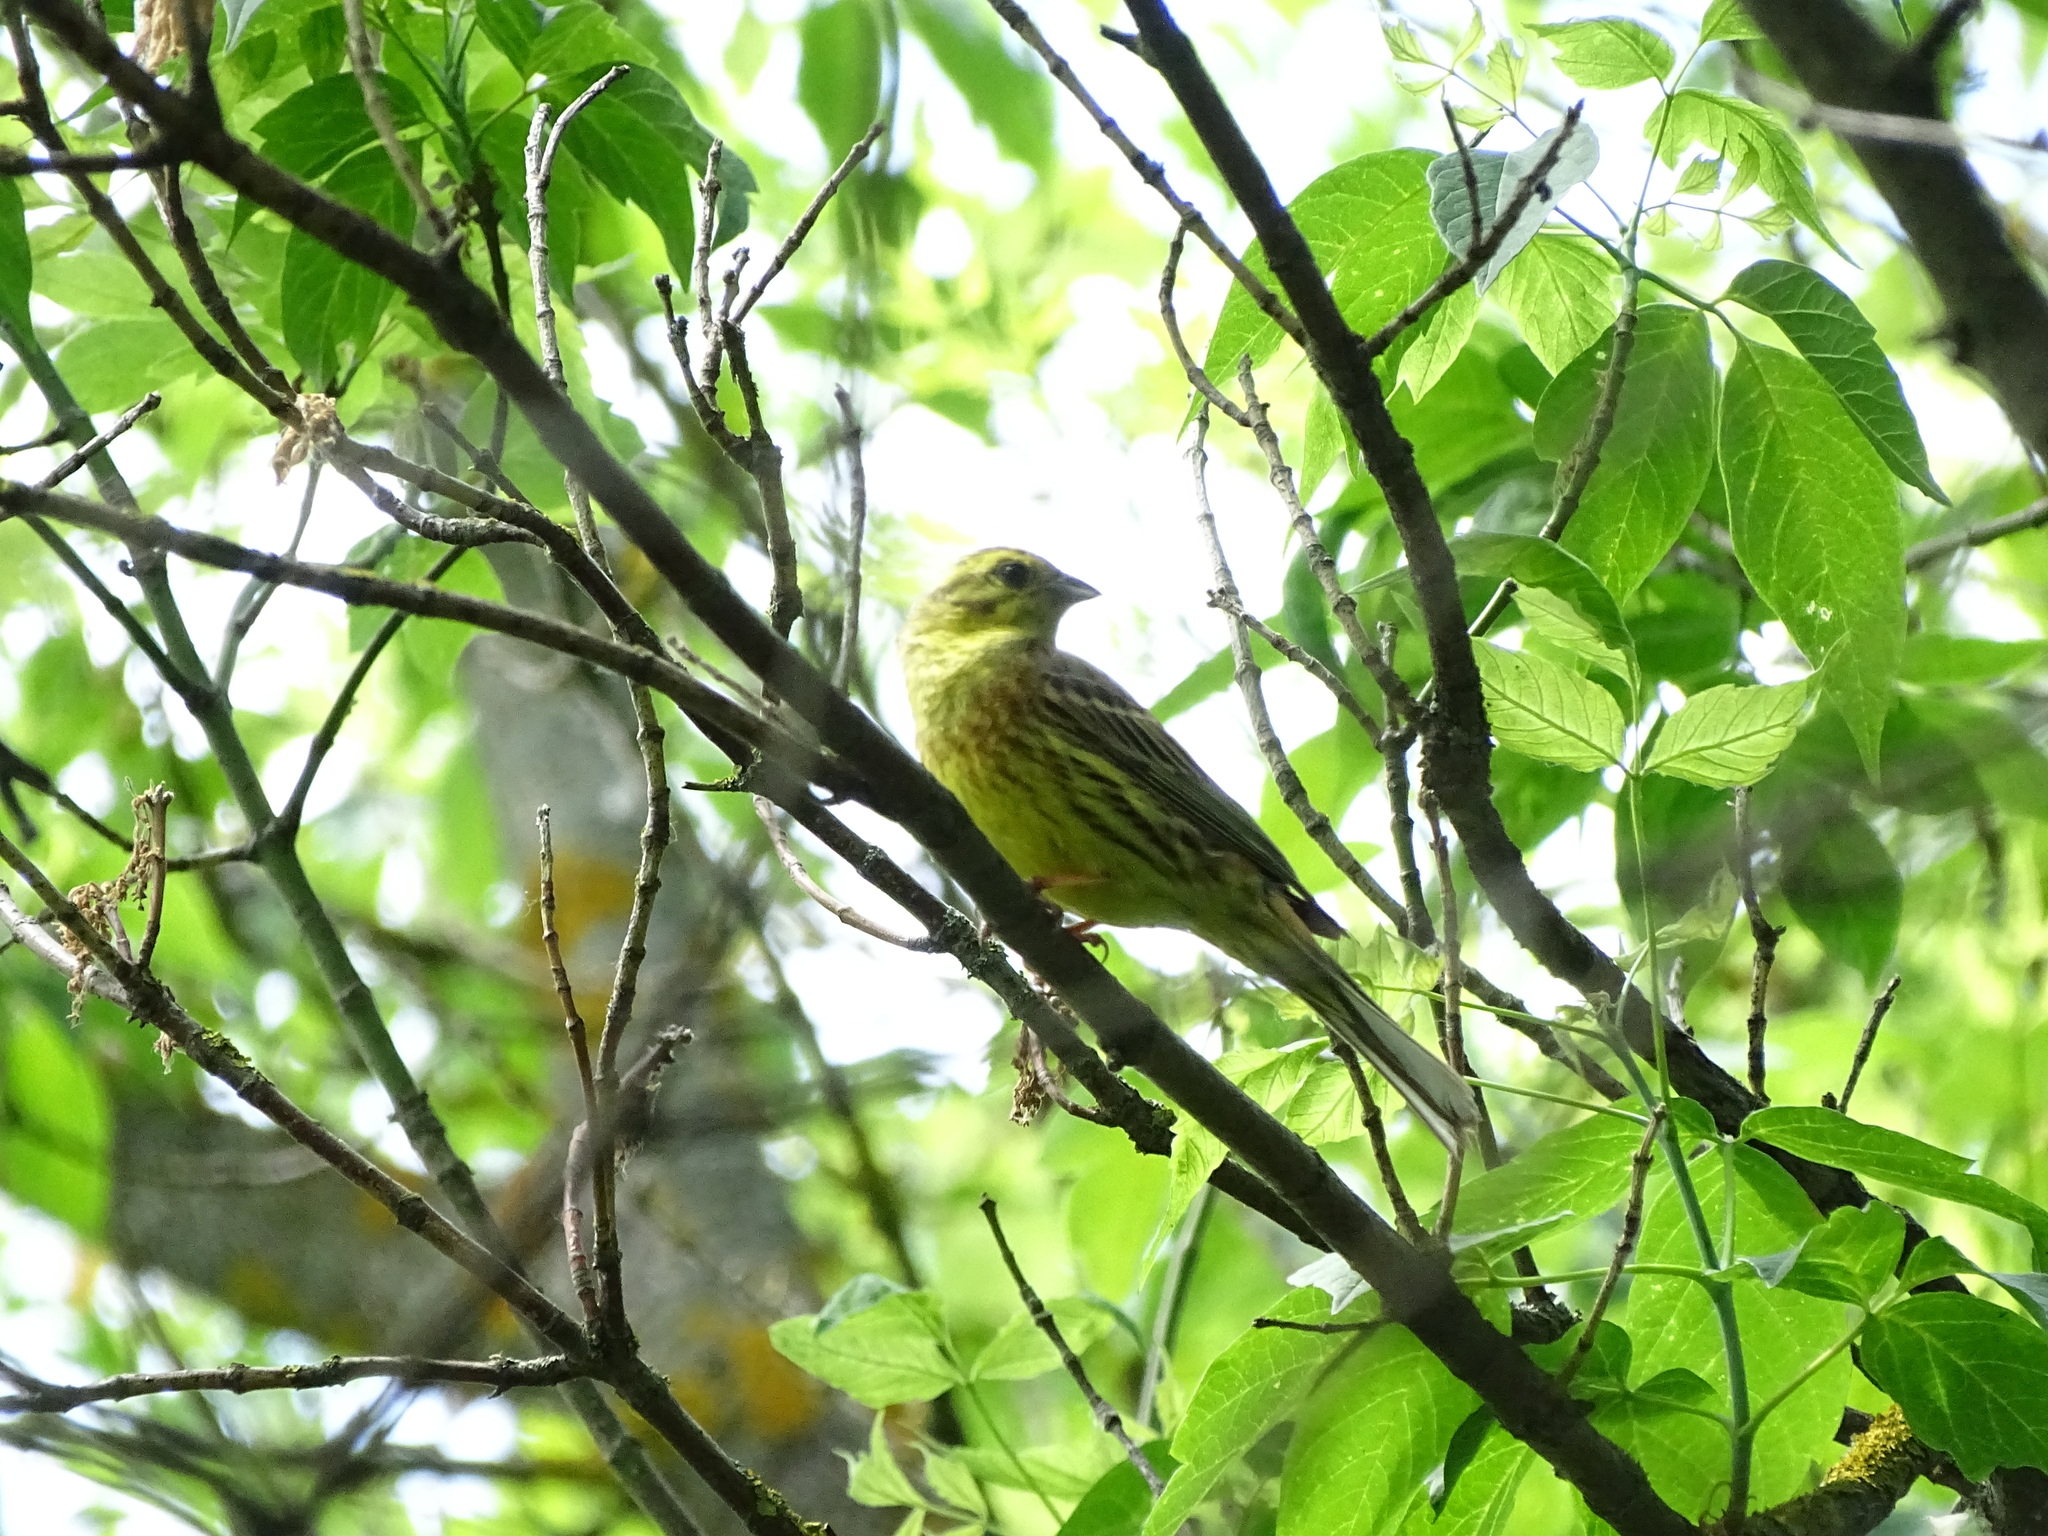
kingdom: Animalia
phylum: Chordata
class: Aves
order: Passeriformes
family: Emberizidae
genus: Emberiza
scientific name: Emberiza citrinella
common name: Yellowhammer
